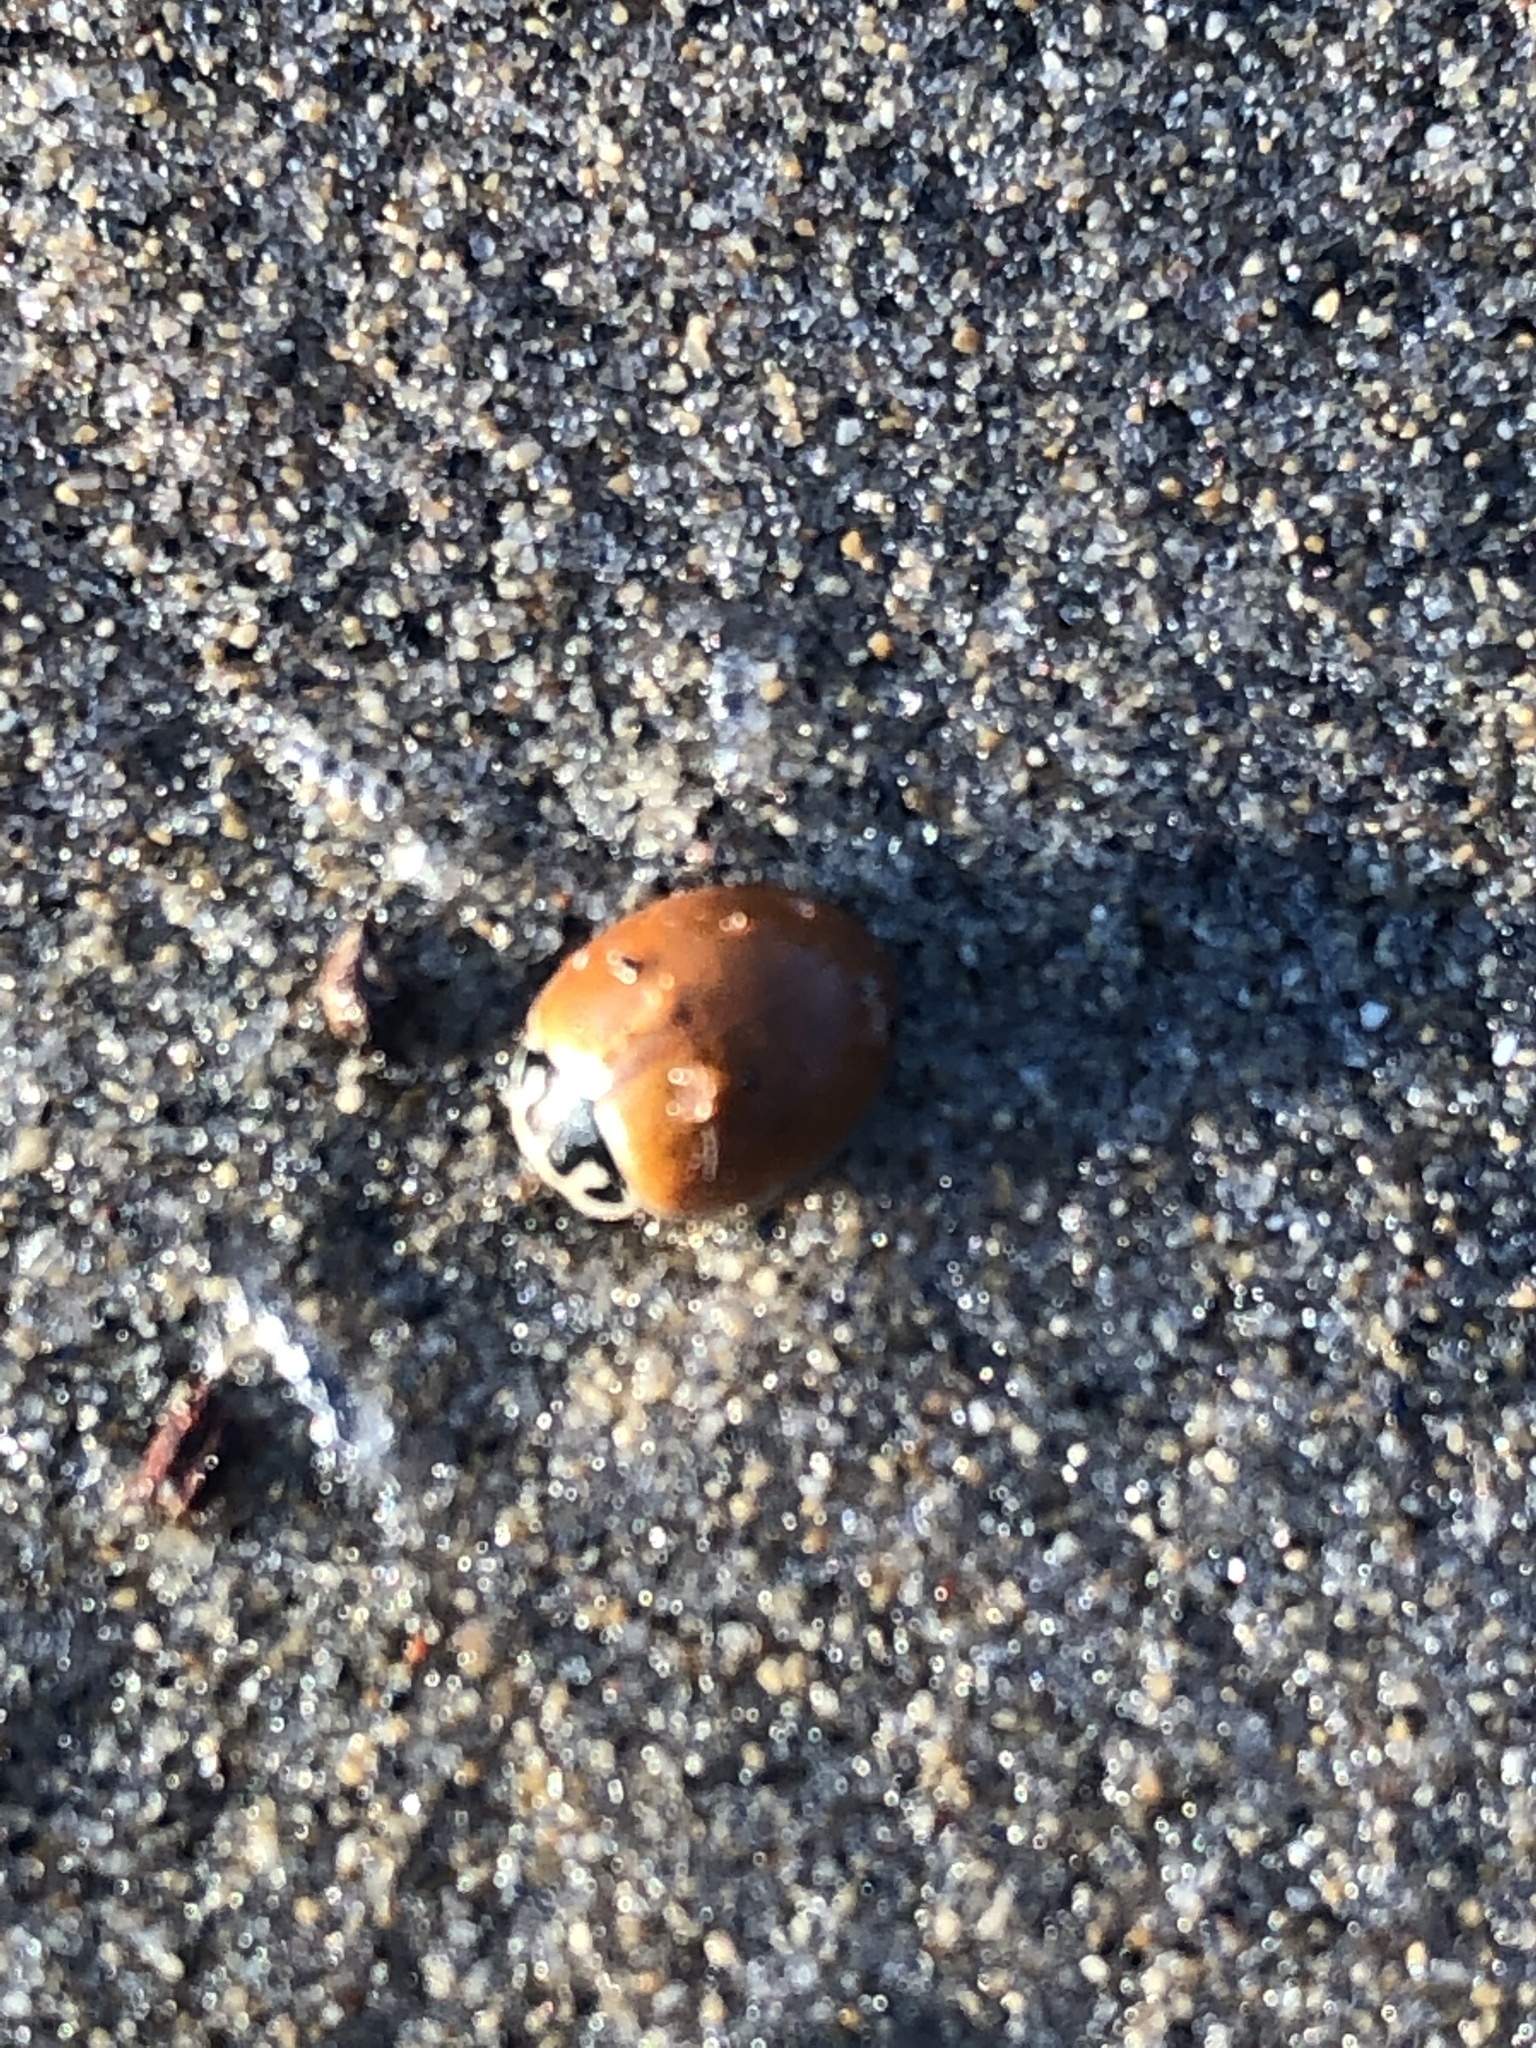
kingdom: Animalia
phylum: Arthropoda
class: Insecta
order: Coleoptera
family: Coccinellidae
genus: Cycloneda
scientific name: Cycloneda munda
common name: Polished lady beetle
